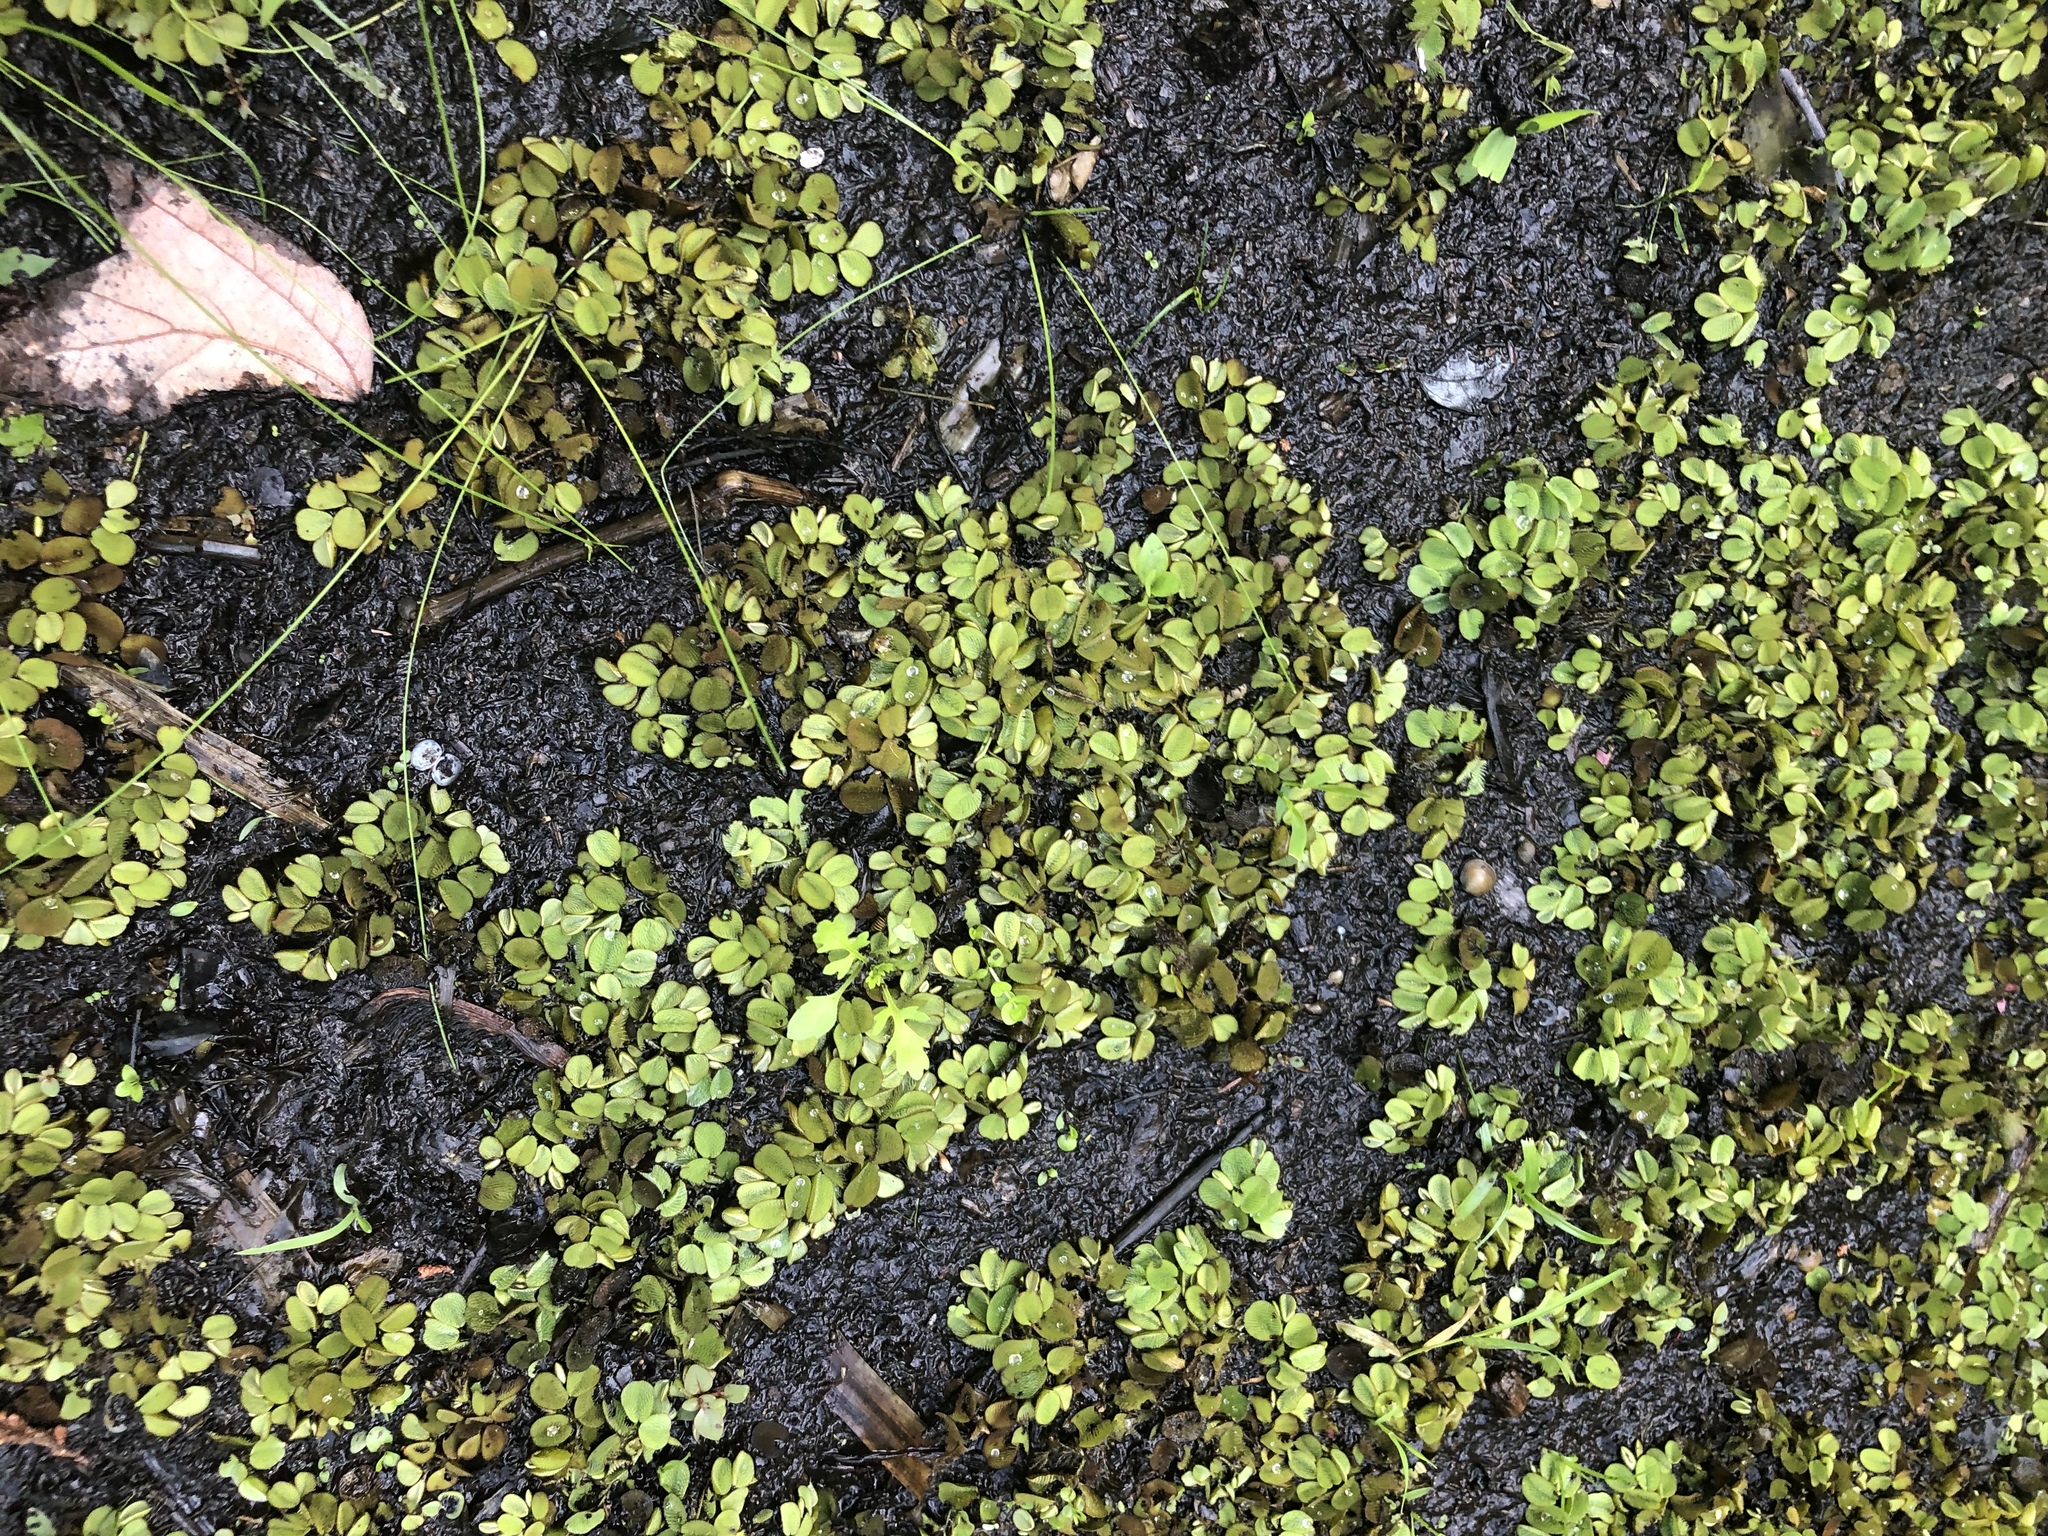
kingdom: Plantae
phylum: Tracheophyta
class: Polypodiopsida
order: Salviniales
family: Salviniaceae
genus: Salvinia
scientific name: Salvinia minima
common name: Water spangles
